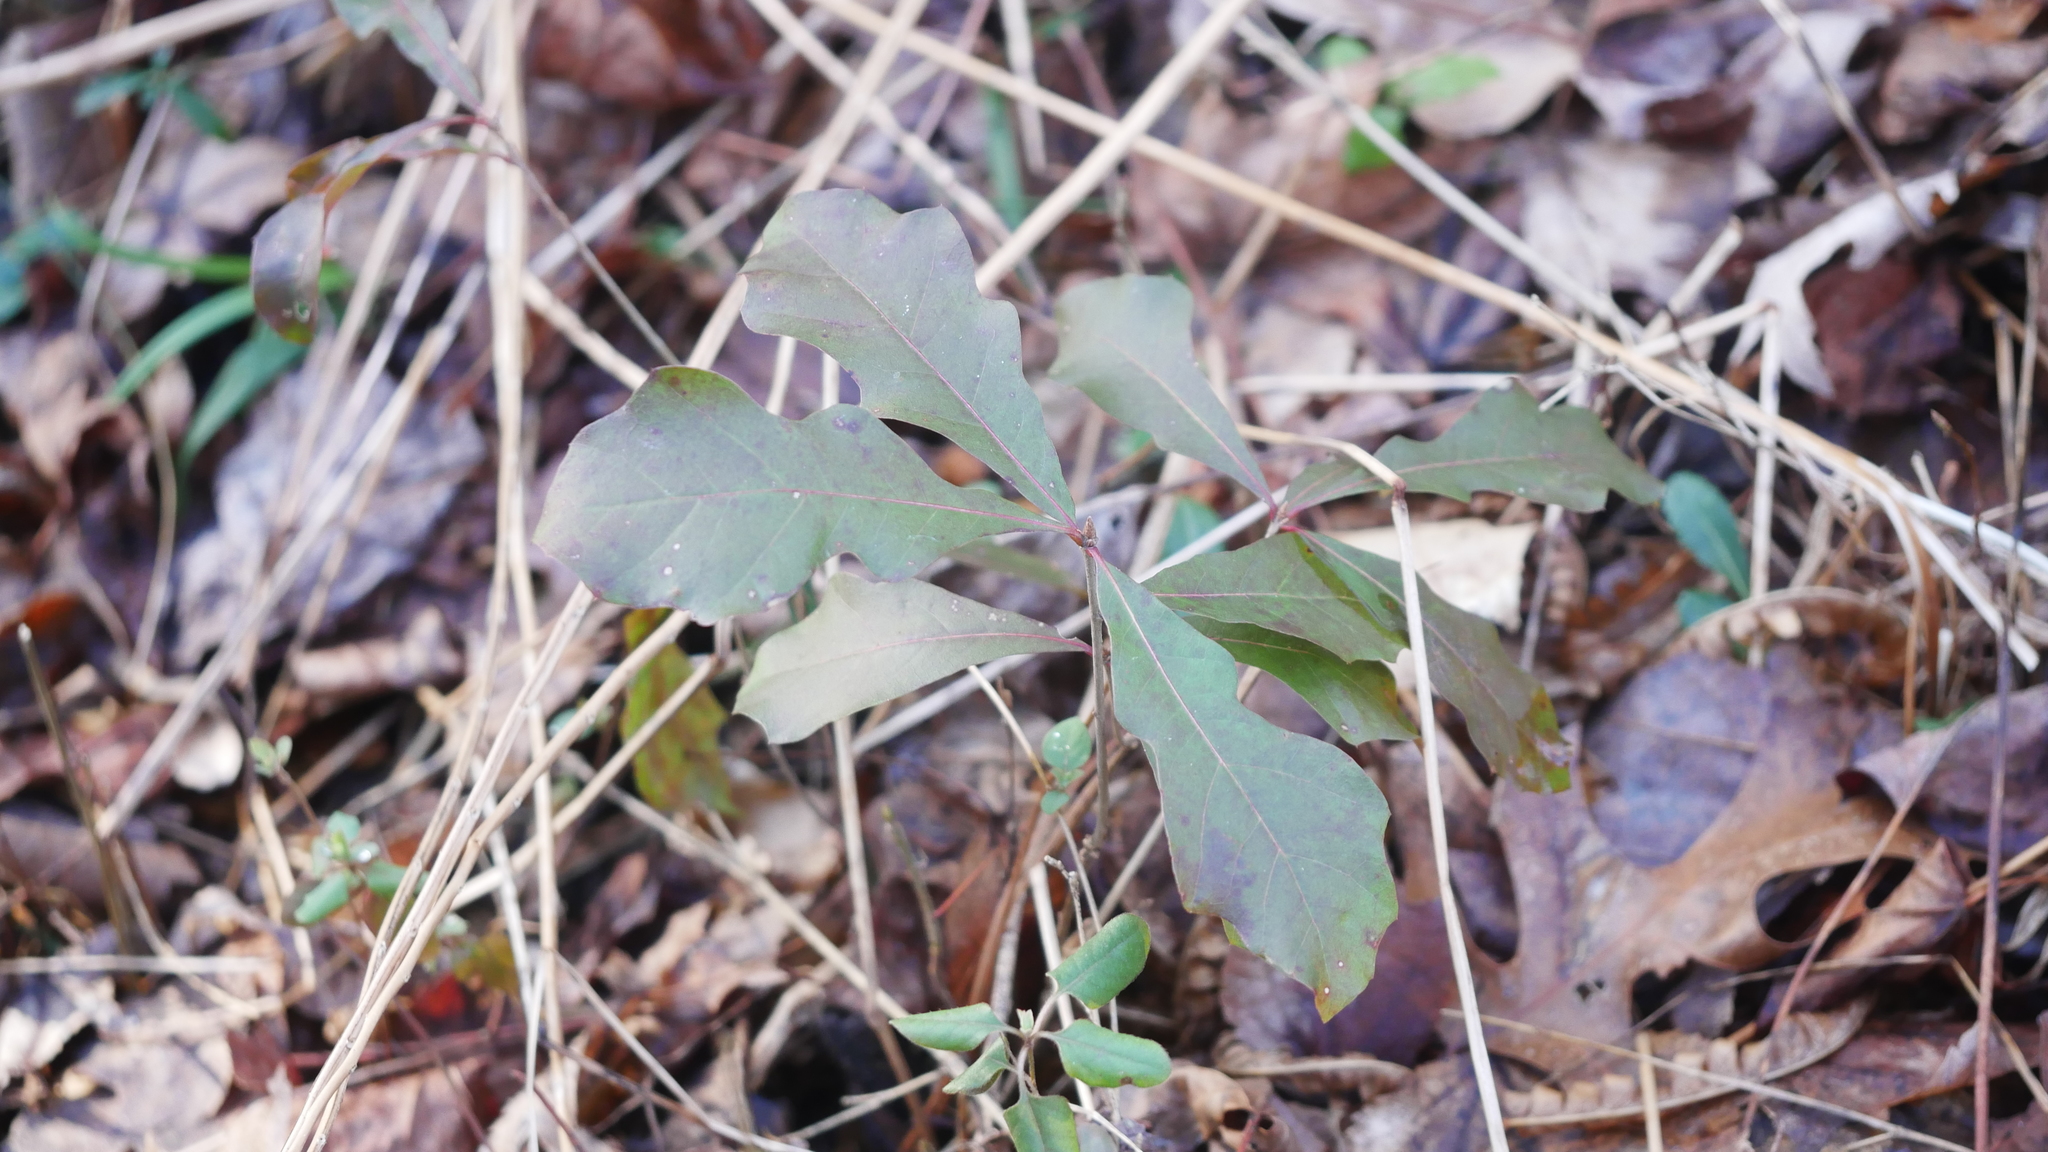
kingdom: Plantae
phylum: Tracheophyta
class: Magnoliopsida
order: Fagales
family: Fagaceae
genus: Quercus
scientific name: Quercus nigra
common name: Water oak
